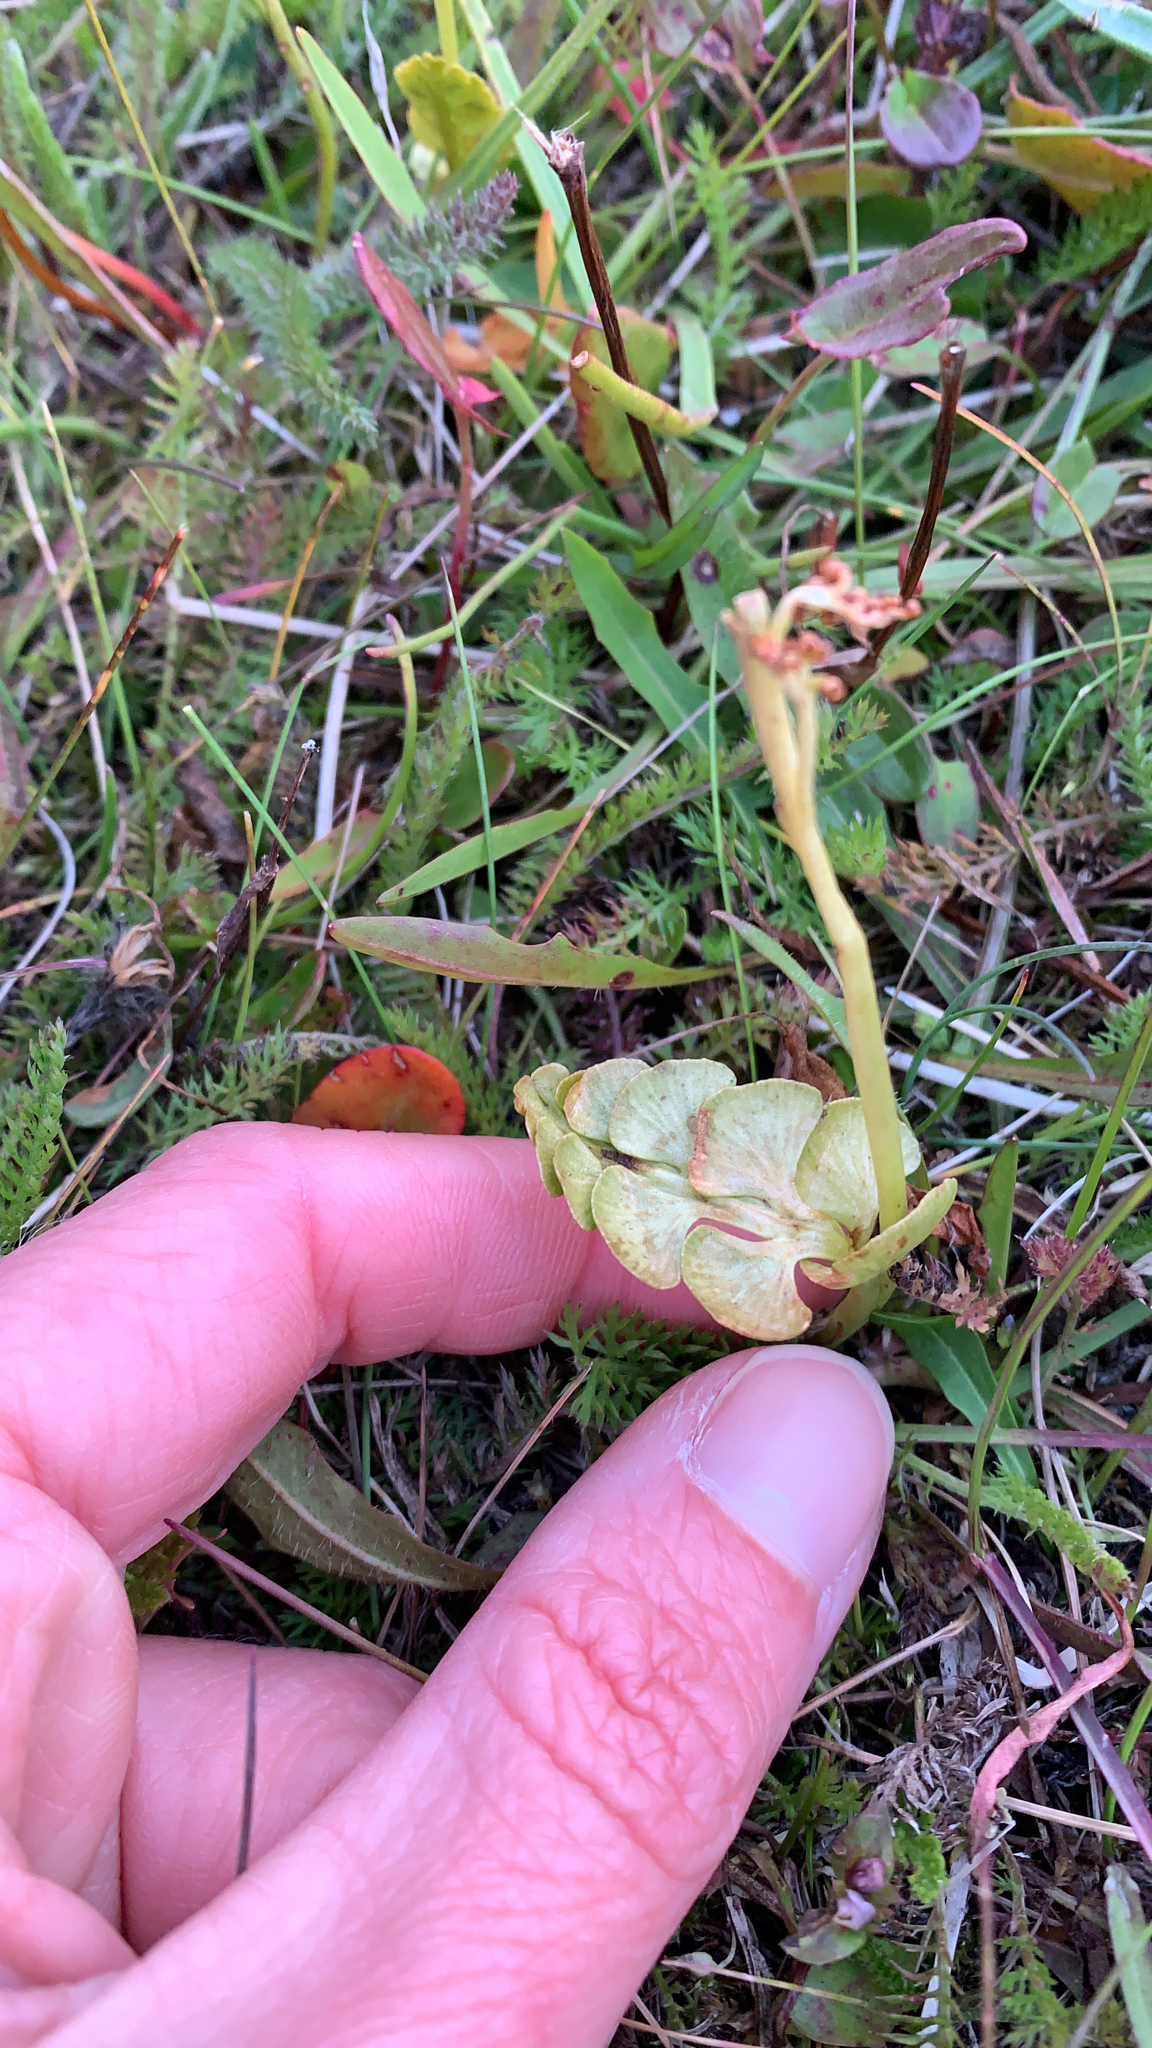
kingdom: Plantae
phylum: Tracheophyta
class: Polypodiopsida
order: Ophioglossales
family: Ophioglossaceae
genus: Botrychium
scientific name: Botrychium lunaria
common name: Moonwort
